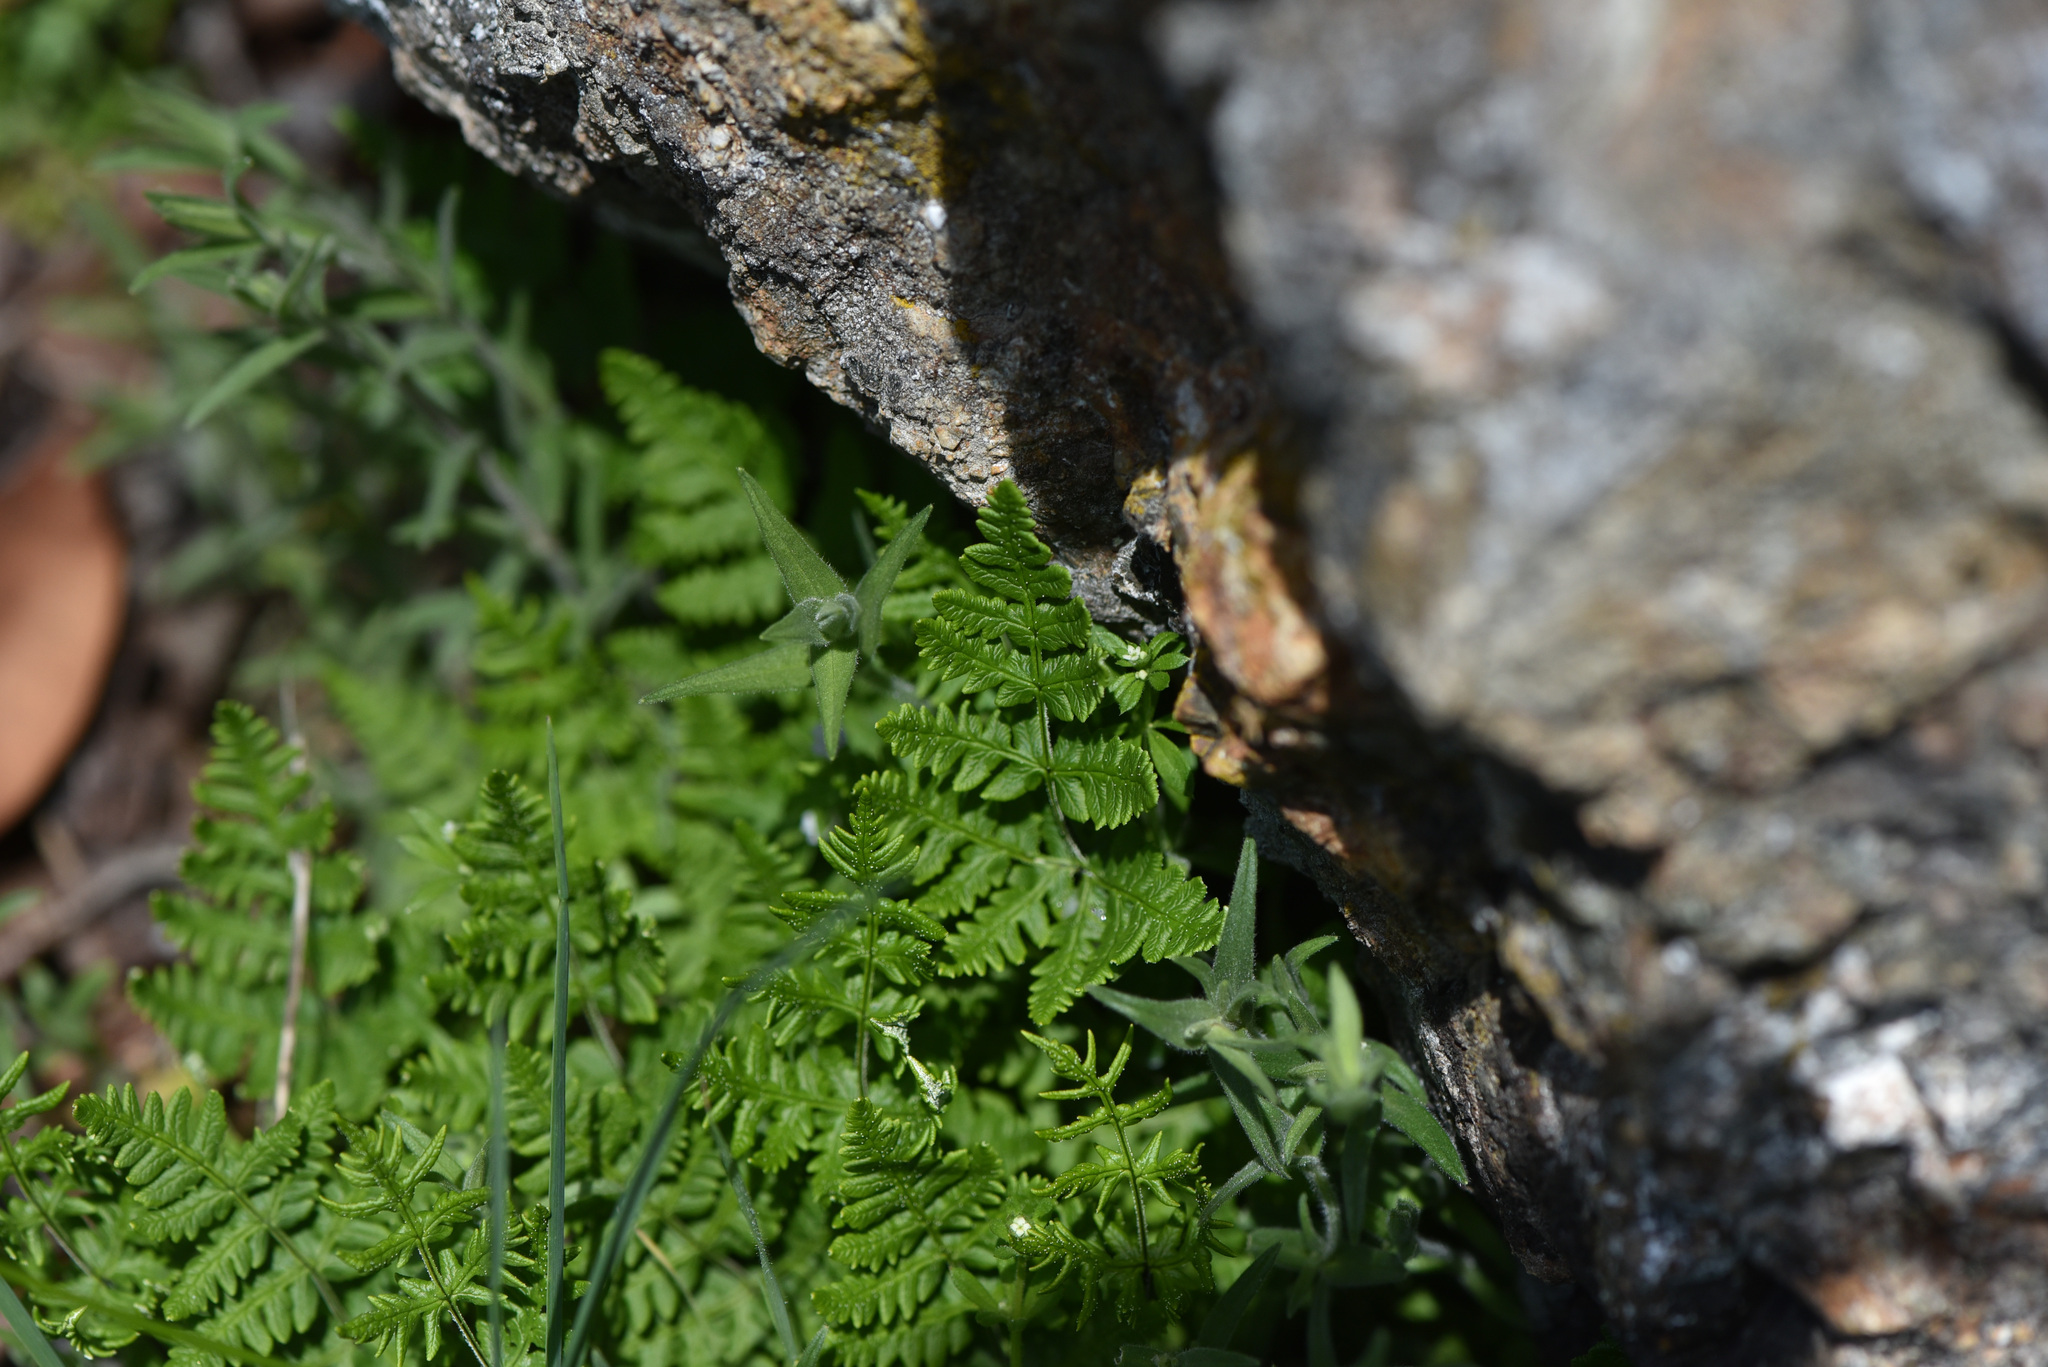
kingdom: Plantae
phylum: Tracheophyta
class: Polypodiopsida
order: Polypodiales
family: Pteridaceae
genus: Pentagramma
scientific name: Pentagramma triangularis
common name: Gold fern
